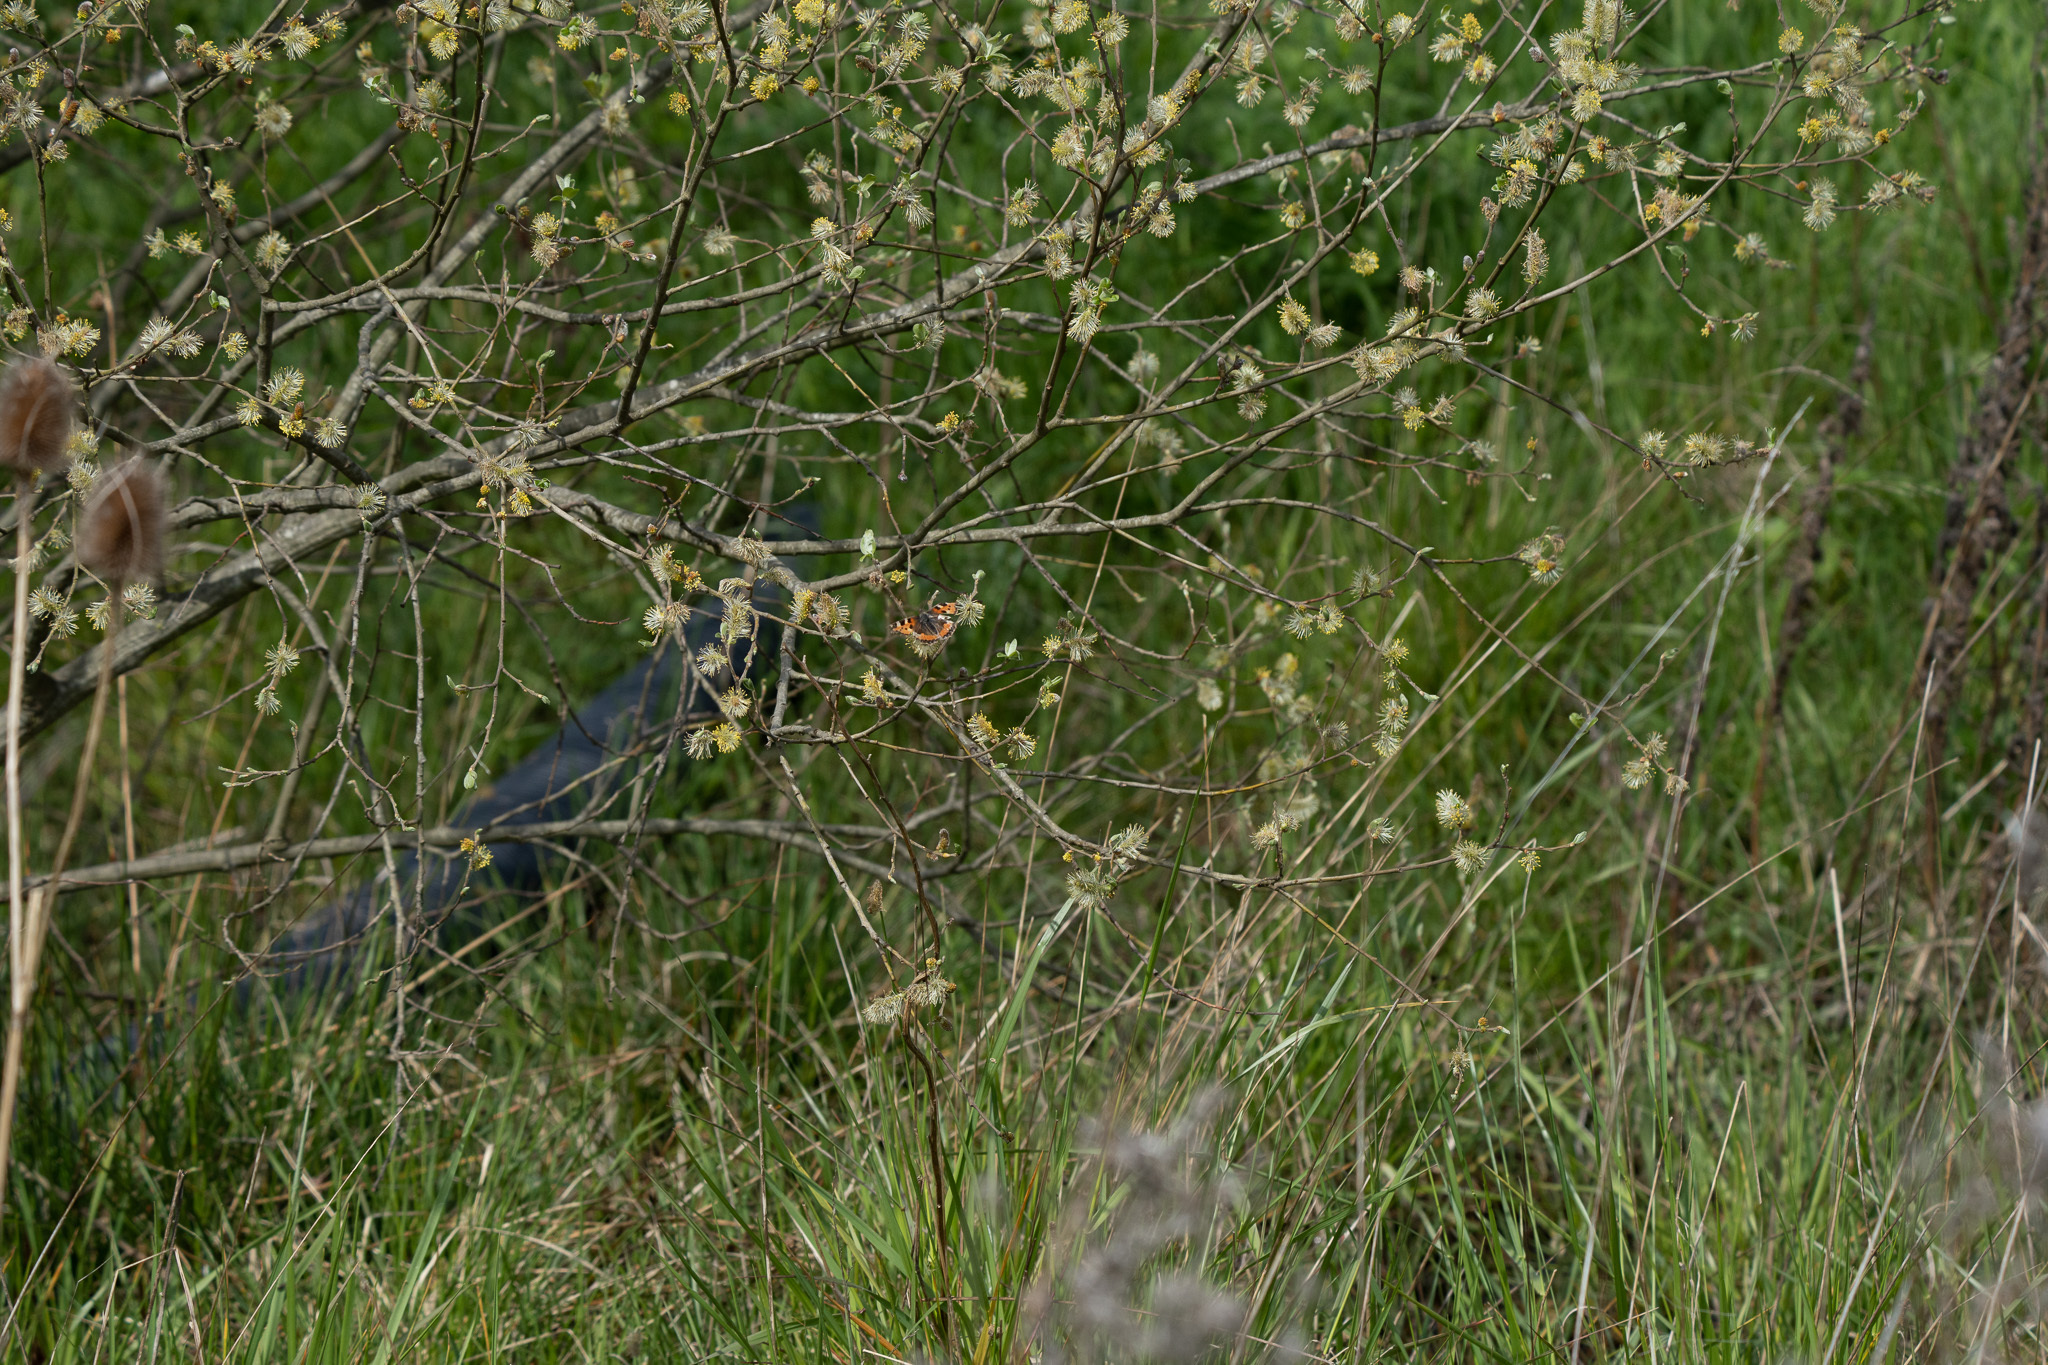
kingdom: Animalia
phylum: Arthropoda
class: Insecta
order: Lepidoptera
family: Nymphalidae
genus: Aglais
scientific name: Aglais urticae
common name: Small tortoiseshell
